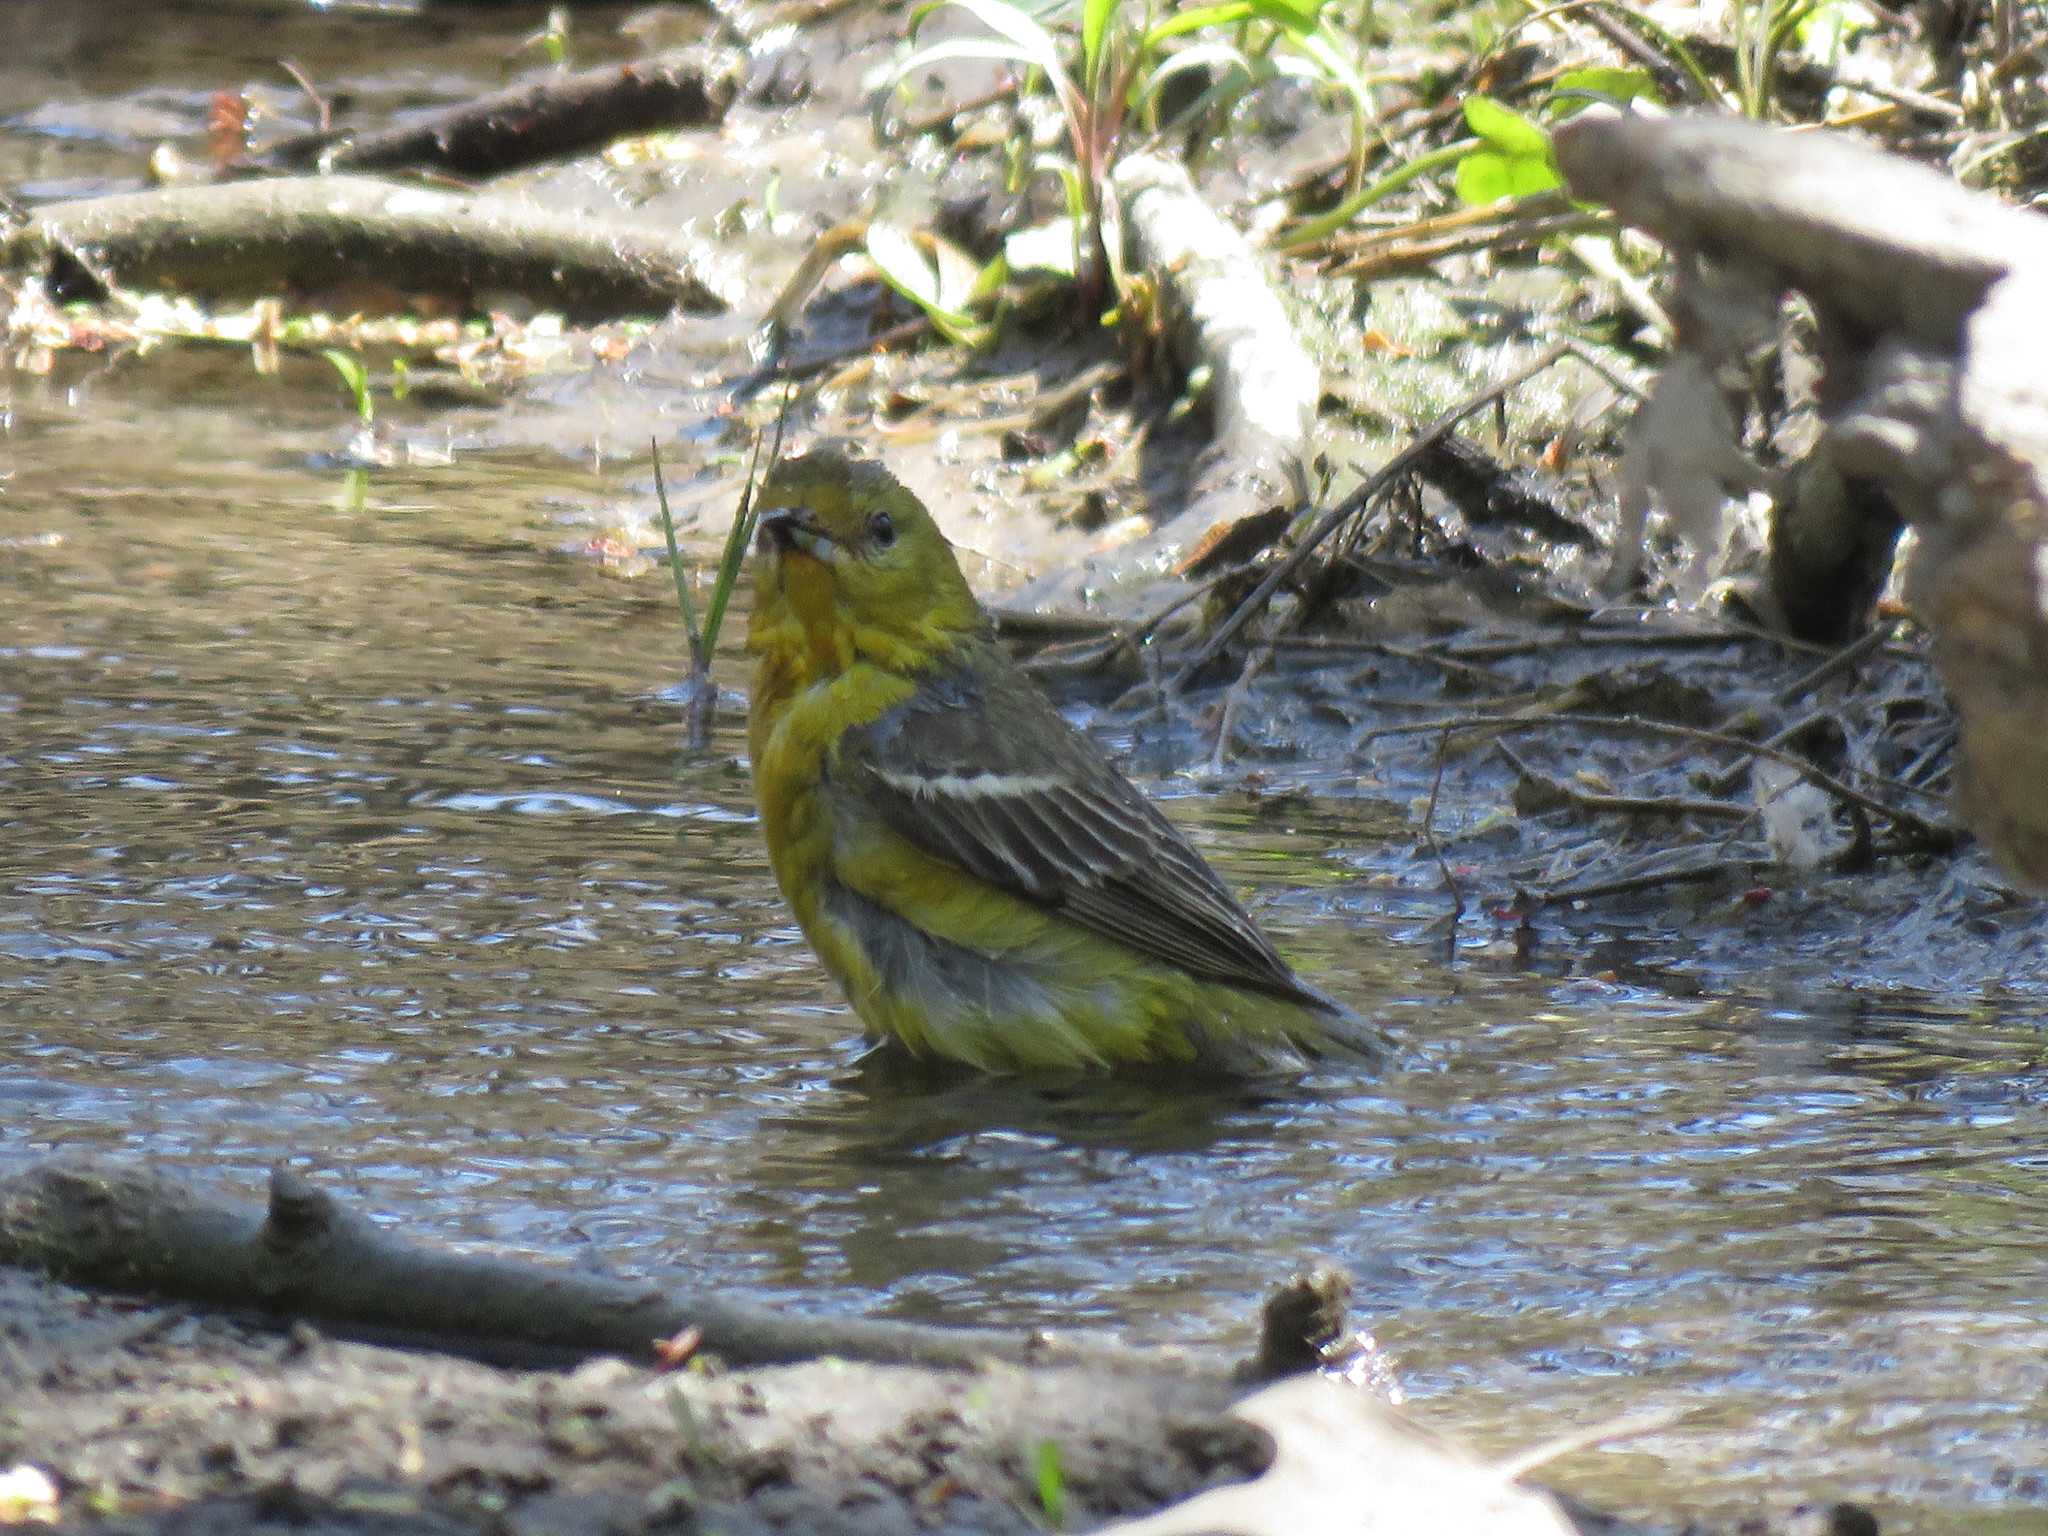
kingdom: Animalia
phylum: Chordata
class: Aves
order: Passeriformes
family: Icteridae
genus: Icterus
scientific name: Icterus spurius
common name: Orchard oriole
